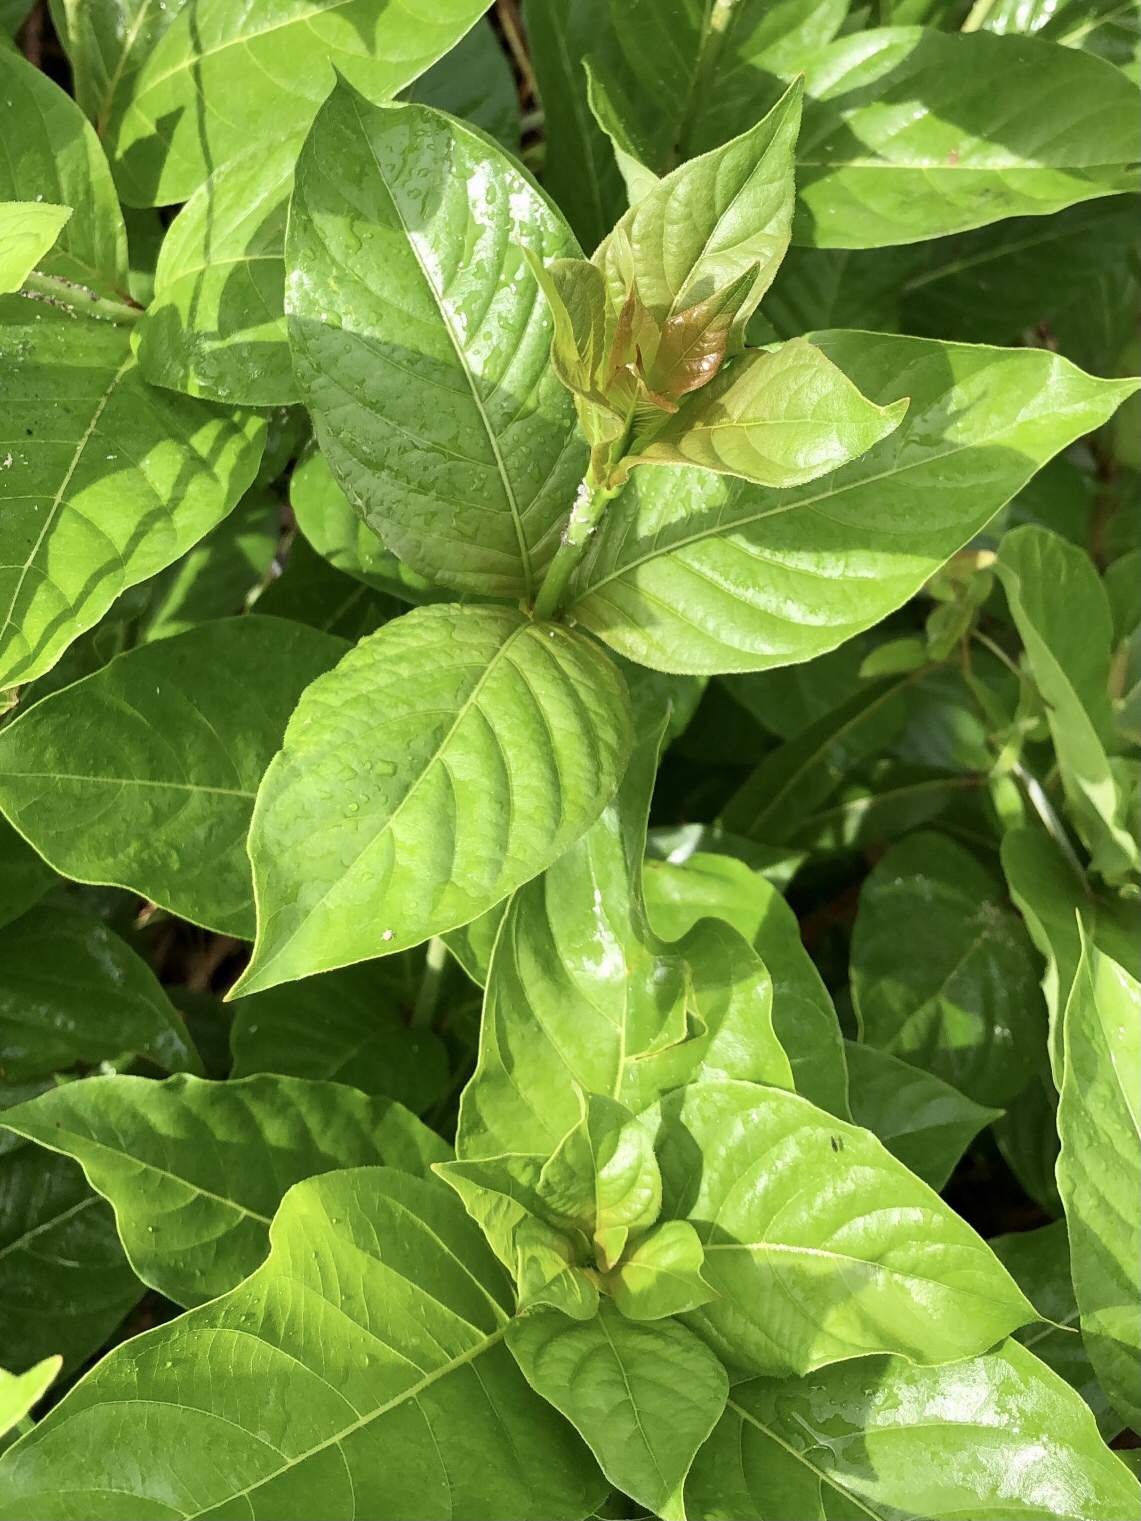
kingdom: Plantae
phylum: Tracheophyta
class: Magnoliopsida
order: Gentianales
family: Rubiaceae
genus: Cephalanthus
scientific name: Cephalanthus occidentalis
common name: Button-willow
